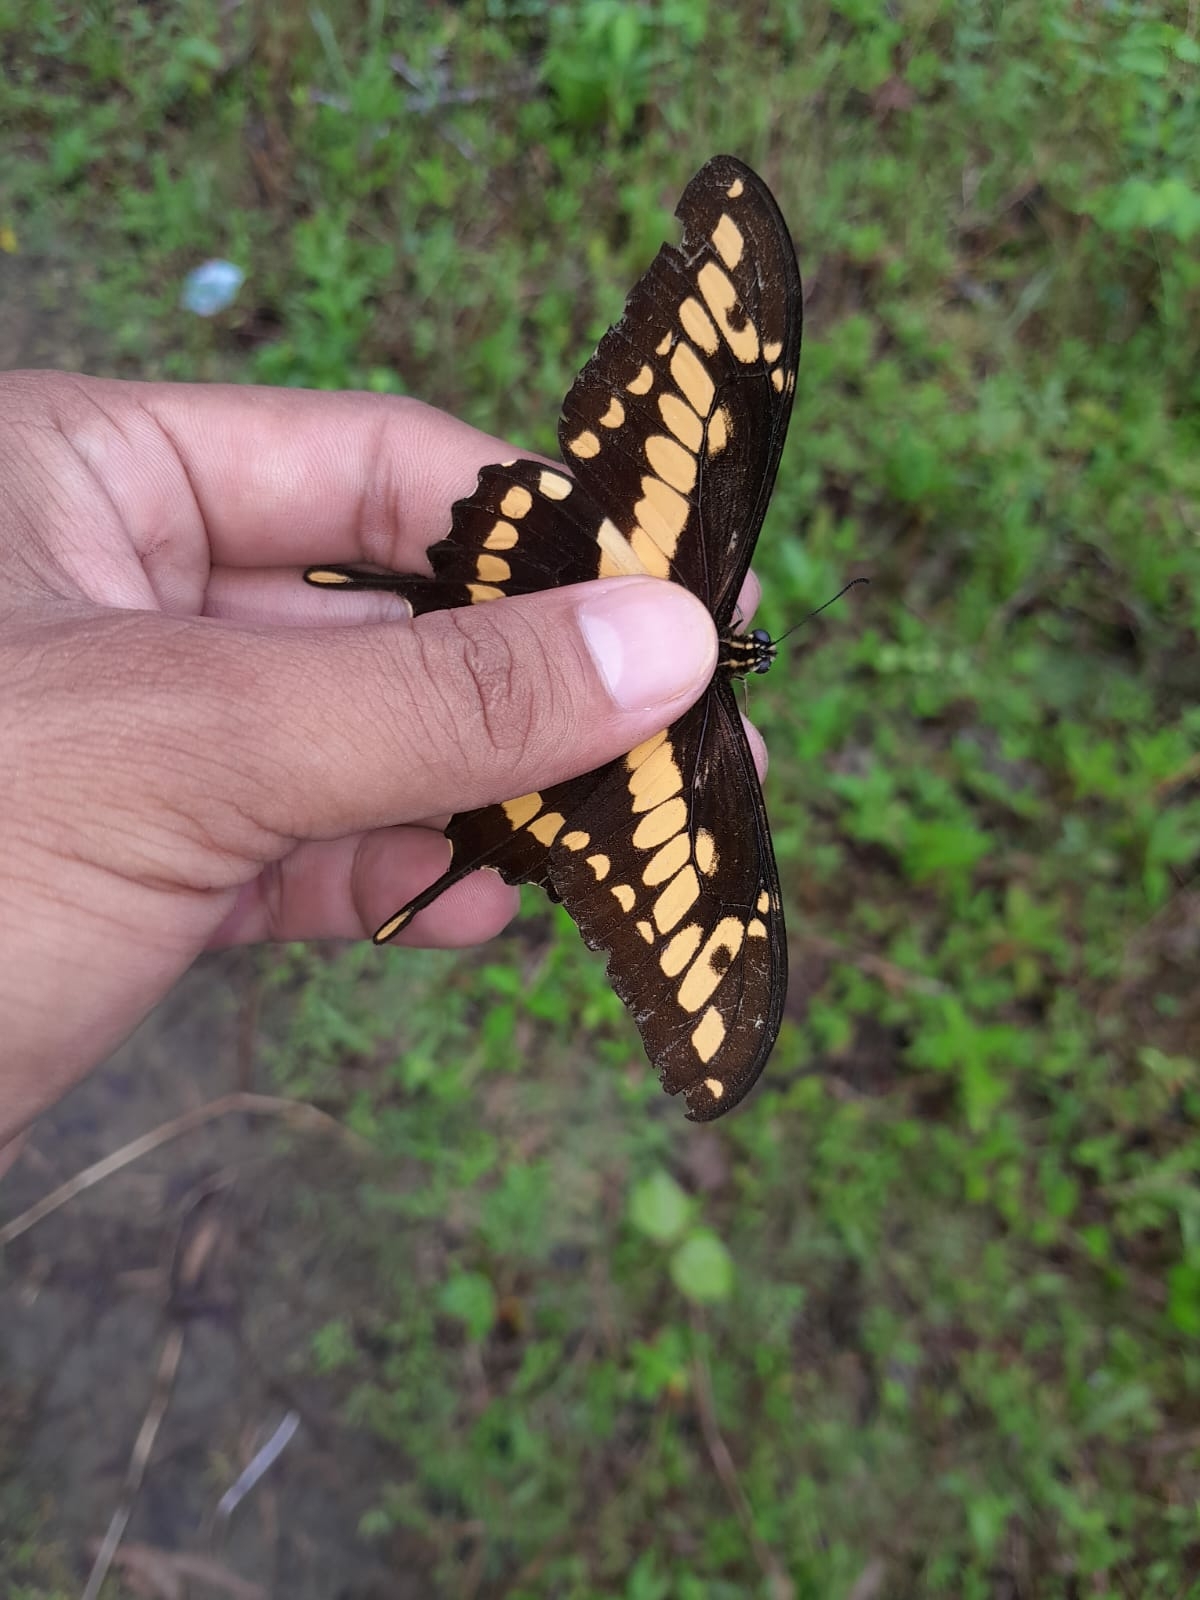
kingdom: Animalia
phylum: Arthropoda
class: Insecta
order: Lepidoptera
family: Papilionidae
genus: Papilio
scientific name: Papilio thoas
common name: King swallowtail
